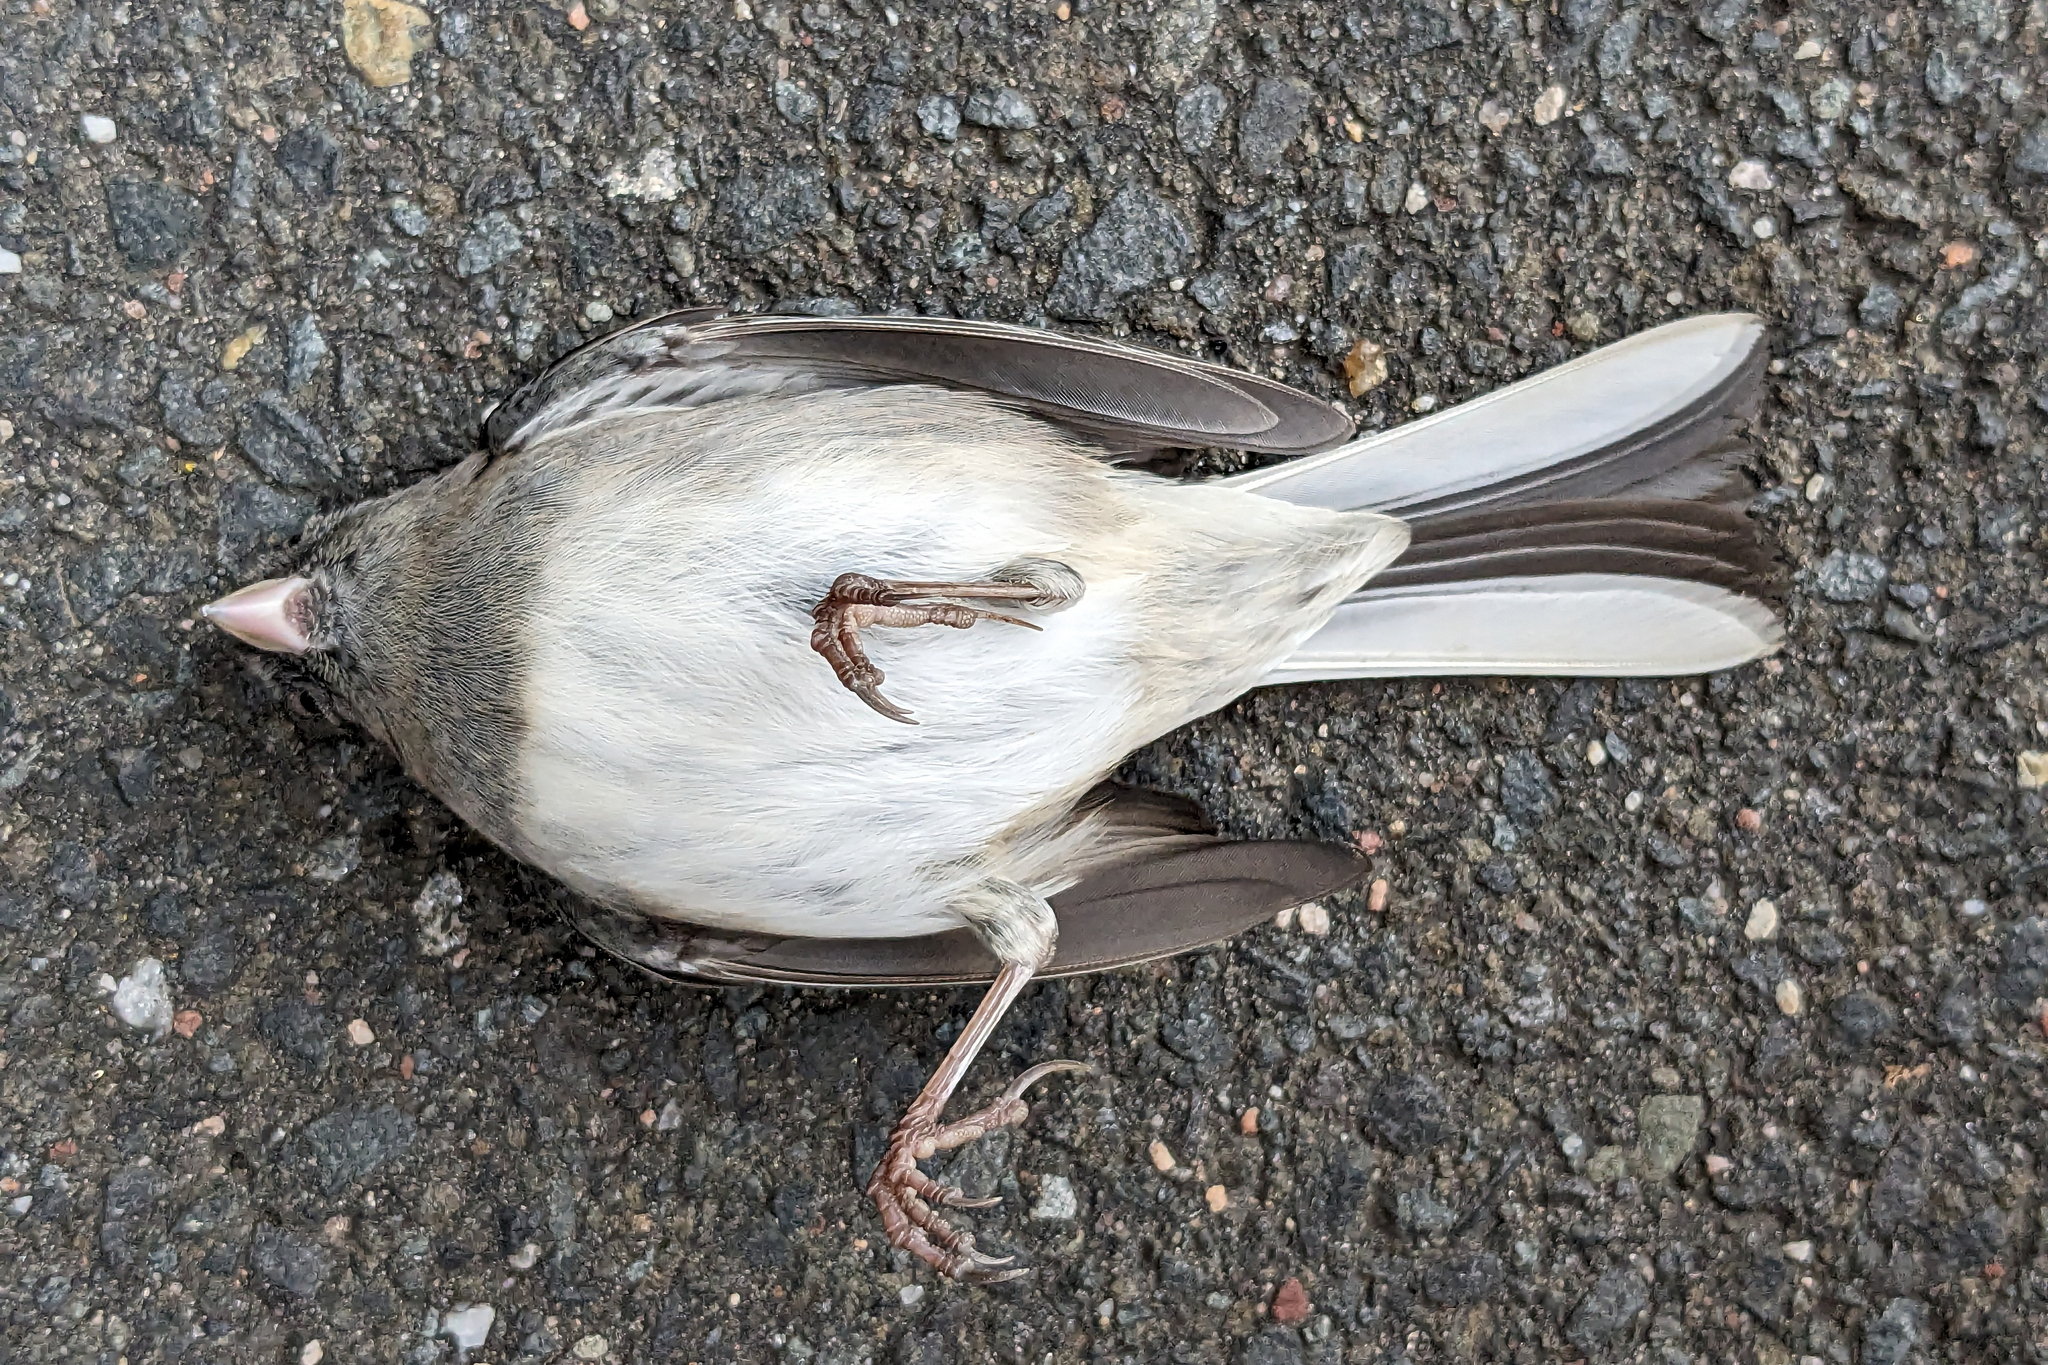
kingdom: Animalia
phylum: Chordata
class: Aves
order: Passeriformes
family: Passerellidae
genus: Junco
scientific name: Junco hyemalis
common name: Dark-eyed junco
